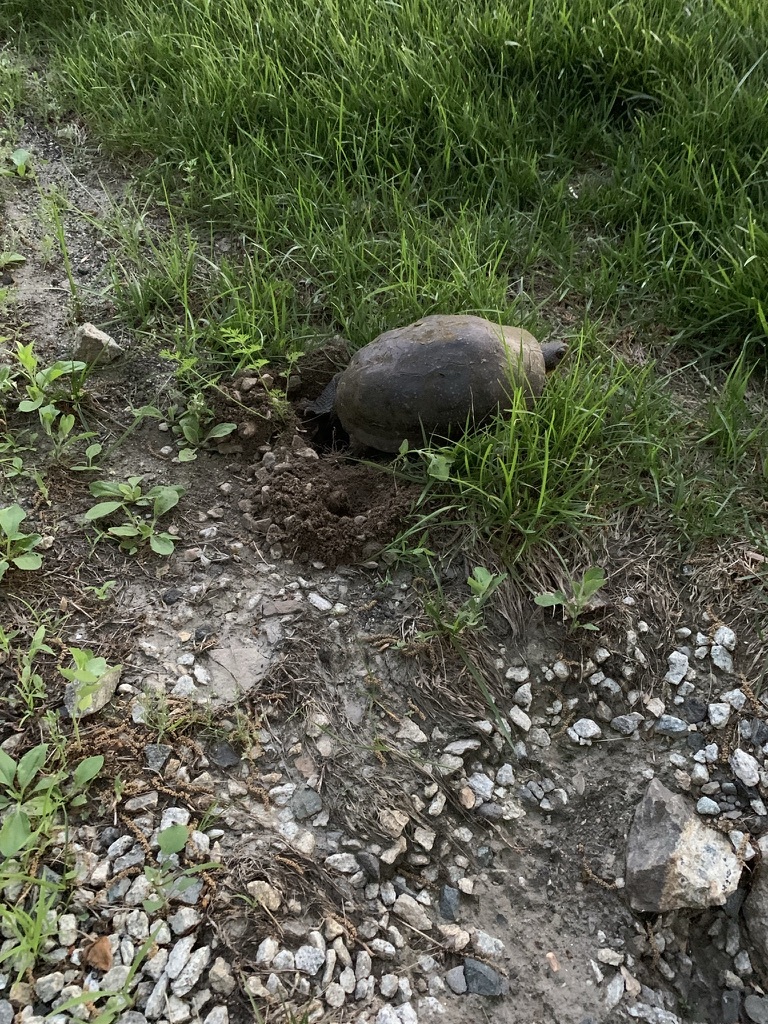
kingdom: Animalia
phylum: Chordata
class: Testudines
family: Emydidae
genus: Emys
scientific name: Emys blandingii
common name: Blanding's turtle
